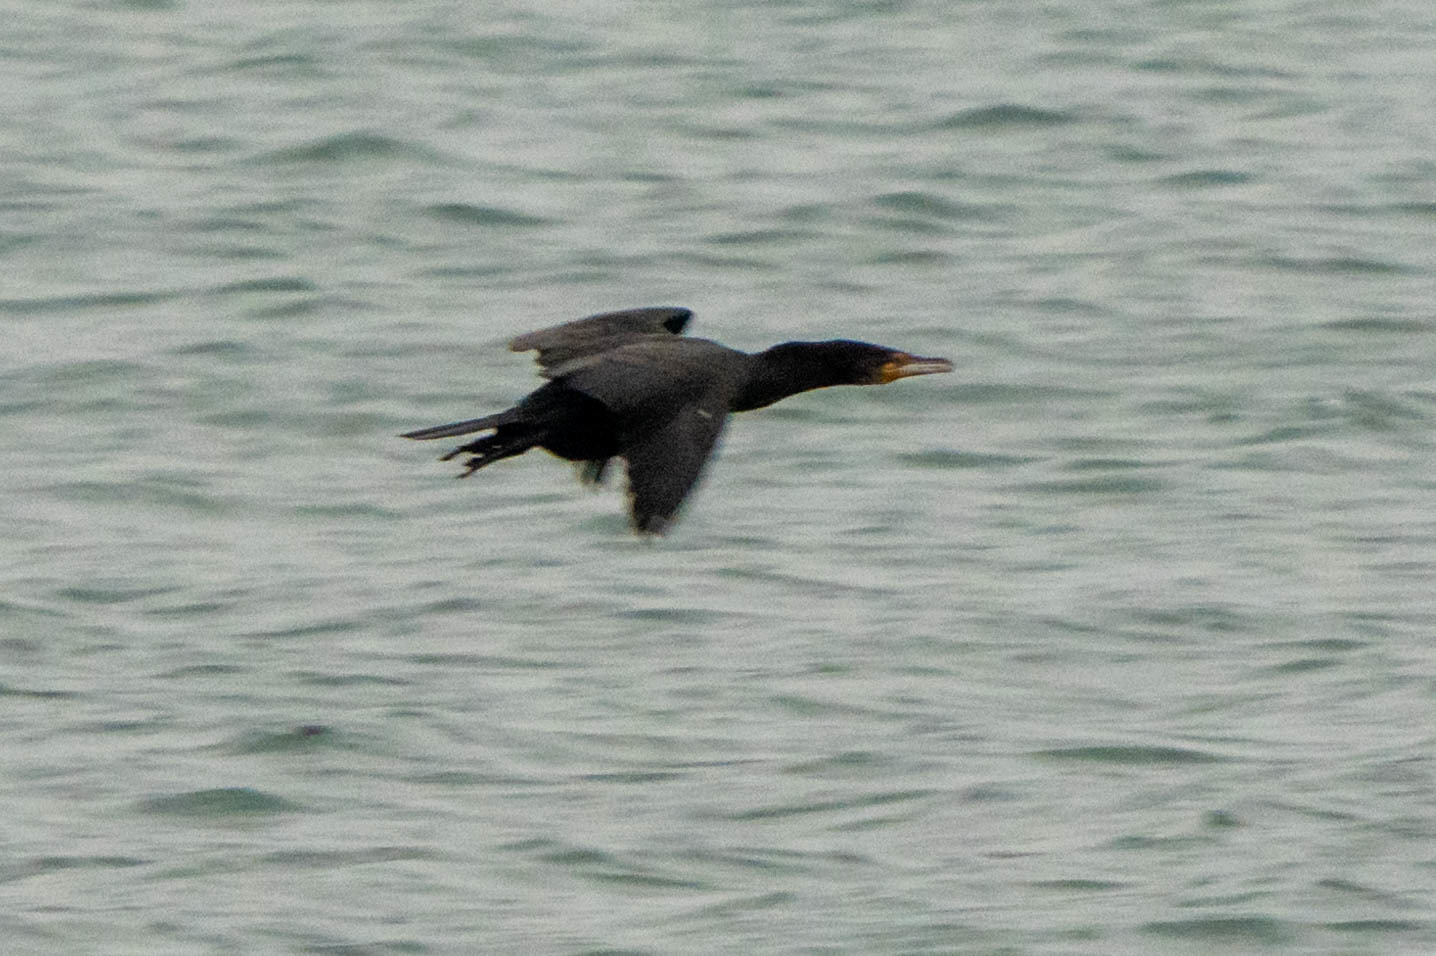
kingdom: Animalia
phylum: Chordata
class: Aves
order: Suliformes
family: Phalacrocoracidae
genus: Phalacrocorax
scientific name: Phalacrocorax auritus
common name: Double-crested cormorant
